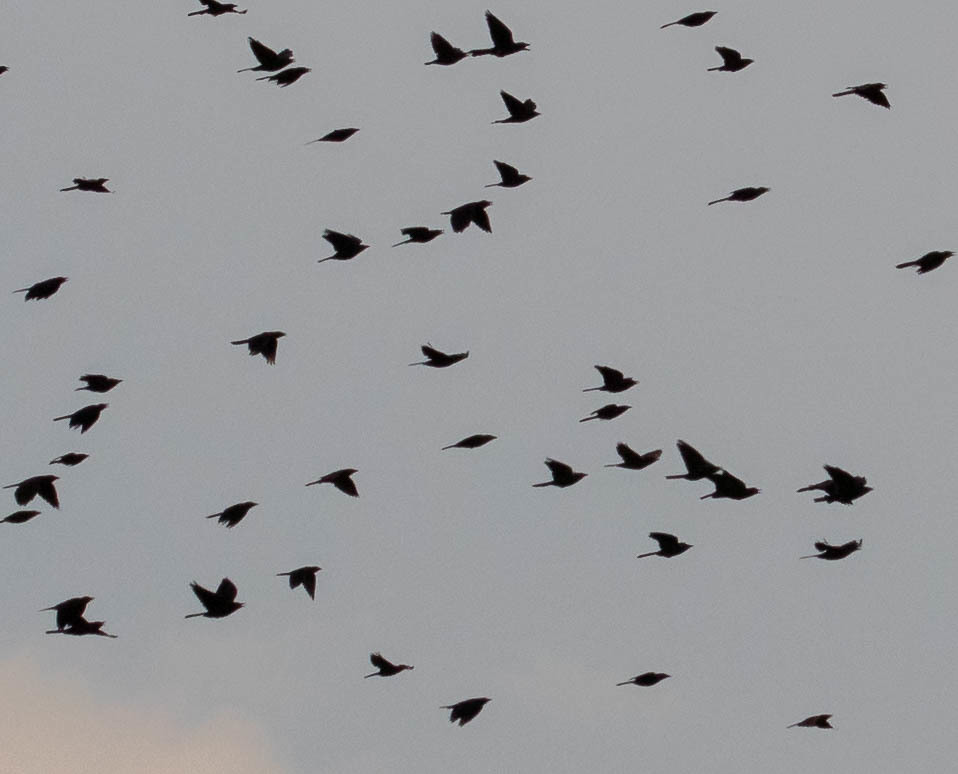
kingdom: Animalia
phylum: Chordata
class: Aves
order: Passeriformes
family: Icteridae
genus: Quiscalus
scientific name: Quiscalus quiscula
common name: Common grackle
